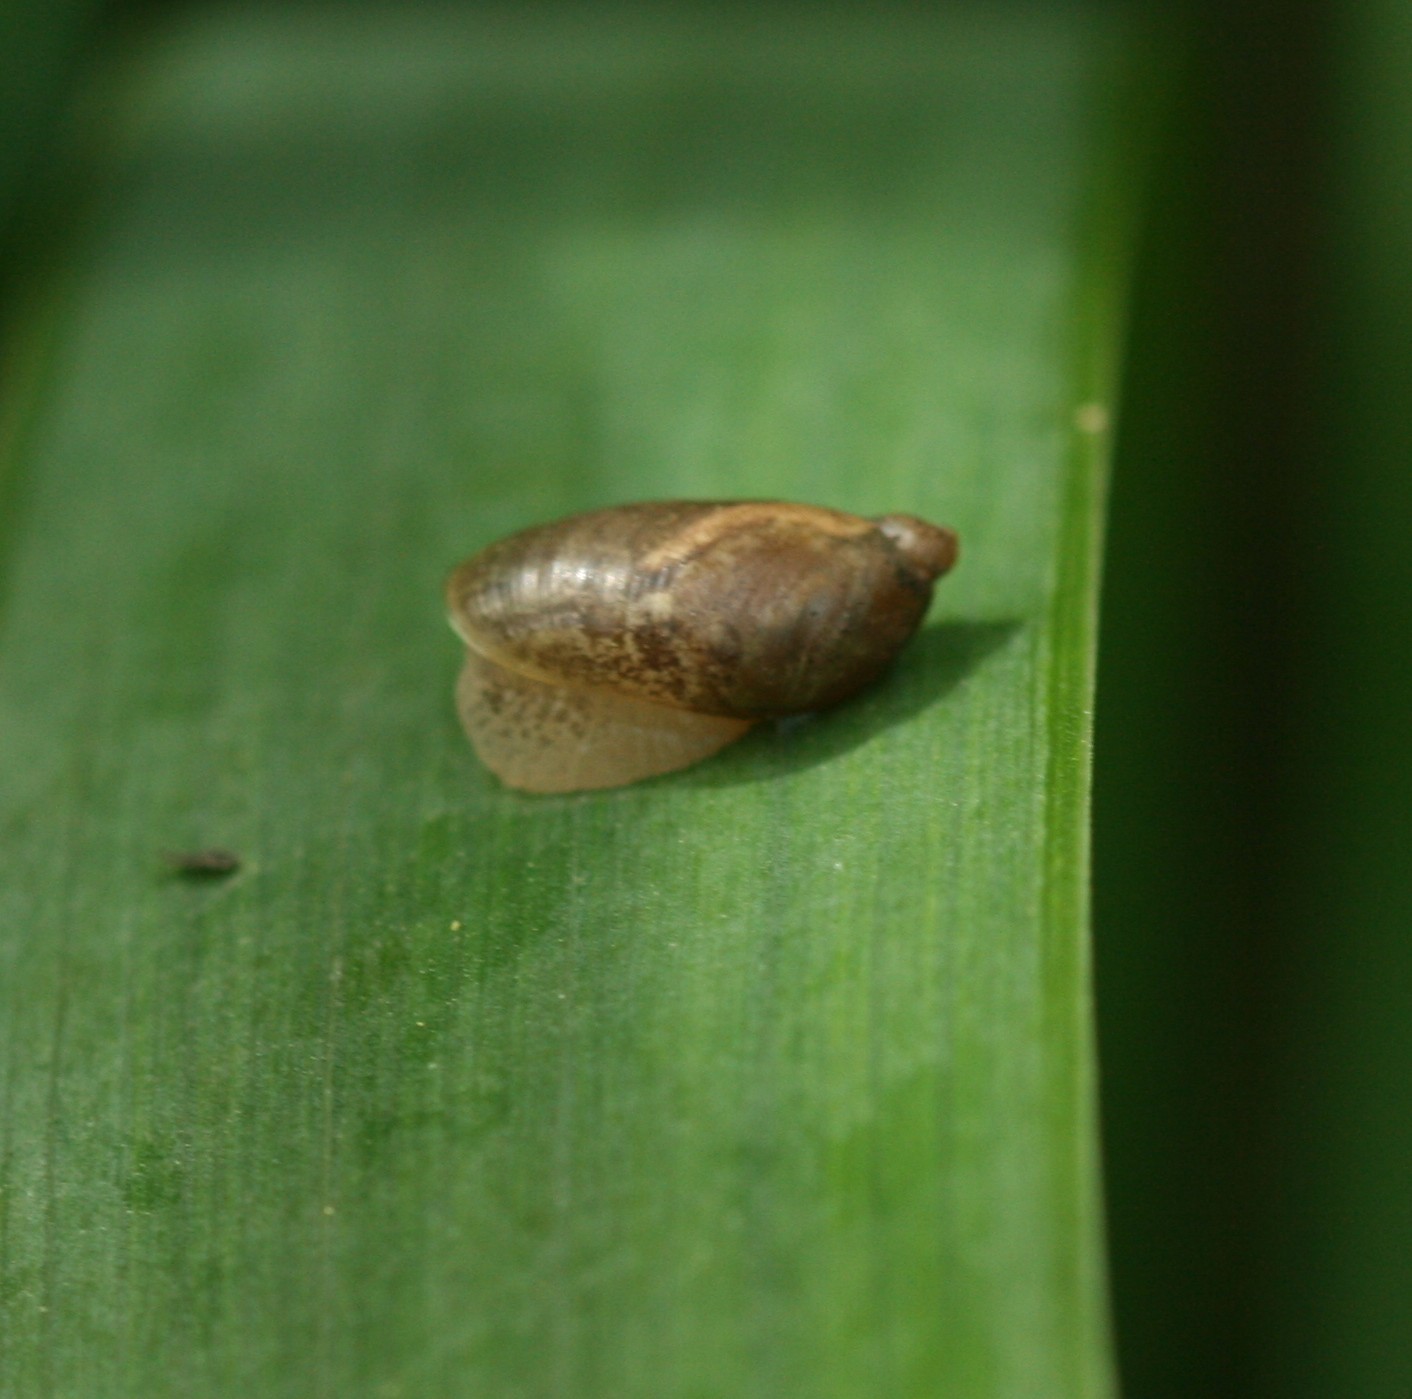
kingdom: Animalia
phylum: Mollusca
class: Gastropoda
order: Stylommatophora
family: Succineidae
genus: Succinea
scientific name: Succinea putris
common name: European ambersnail
